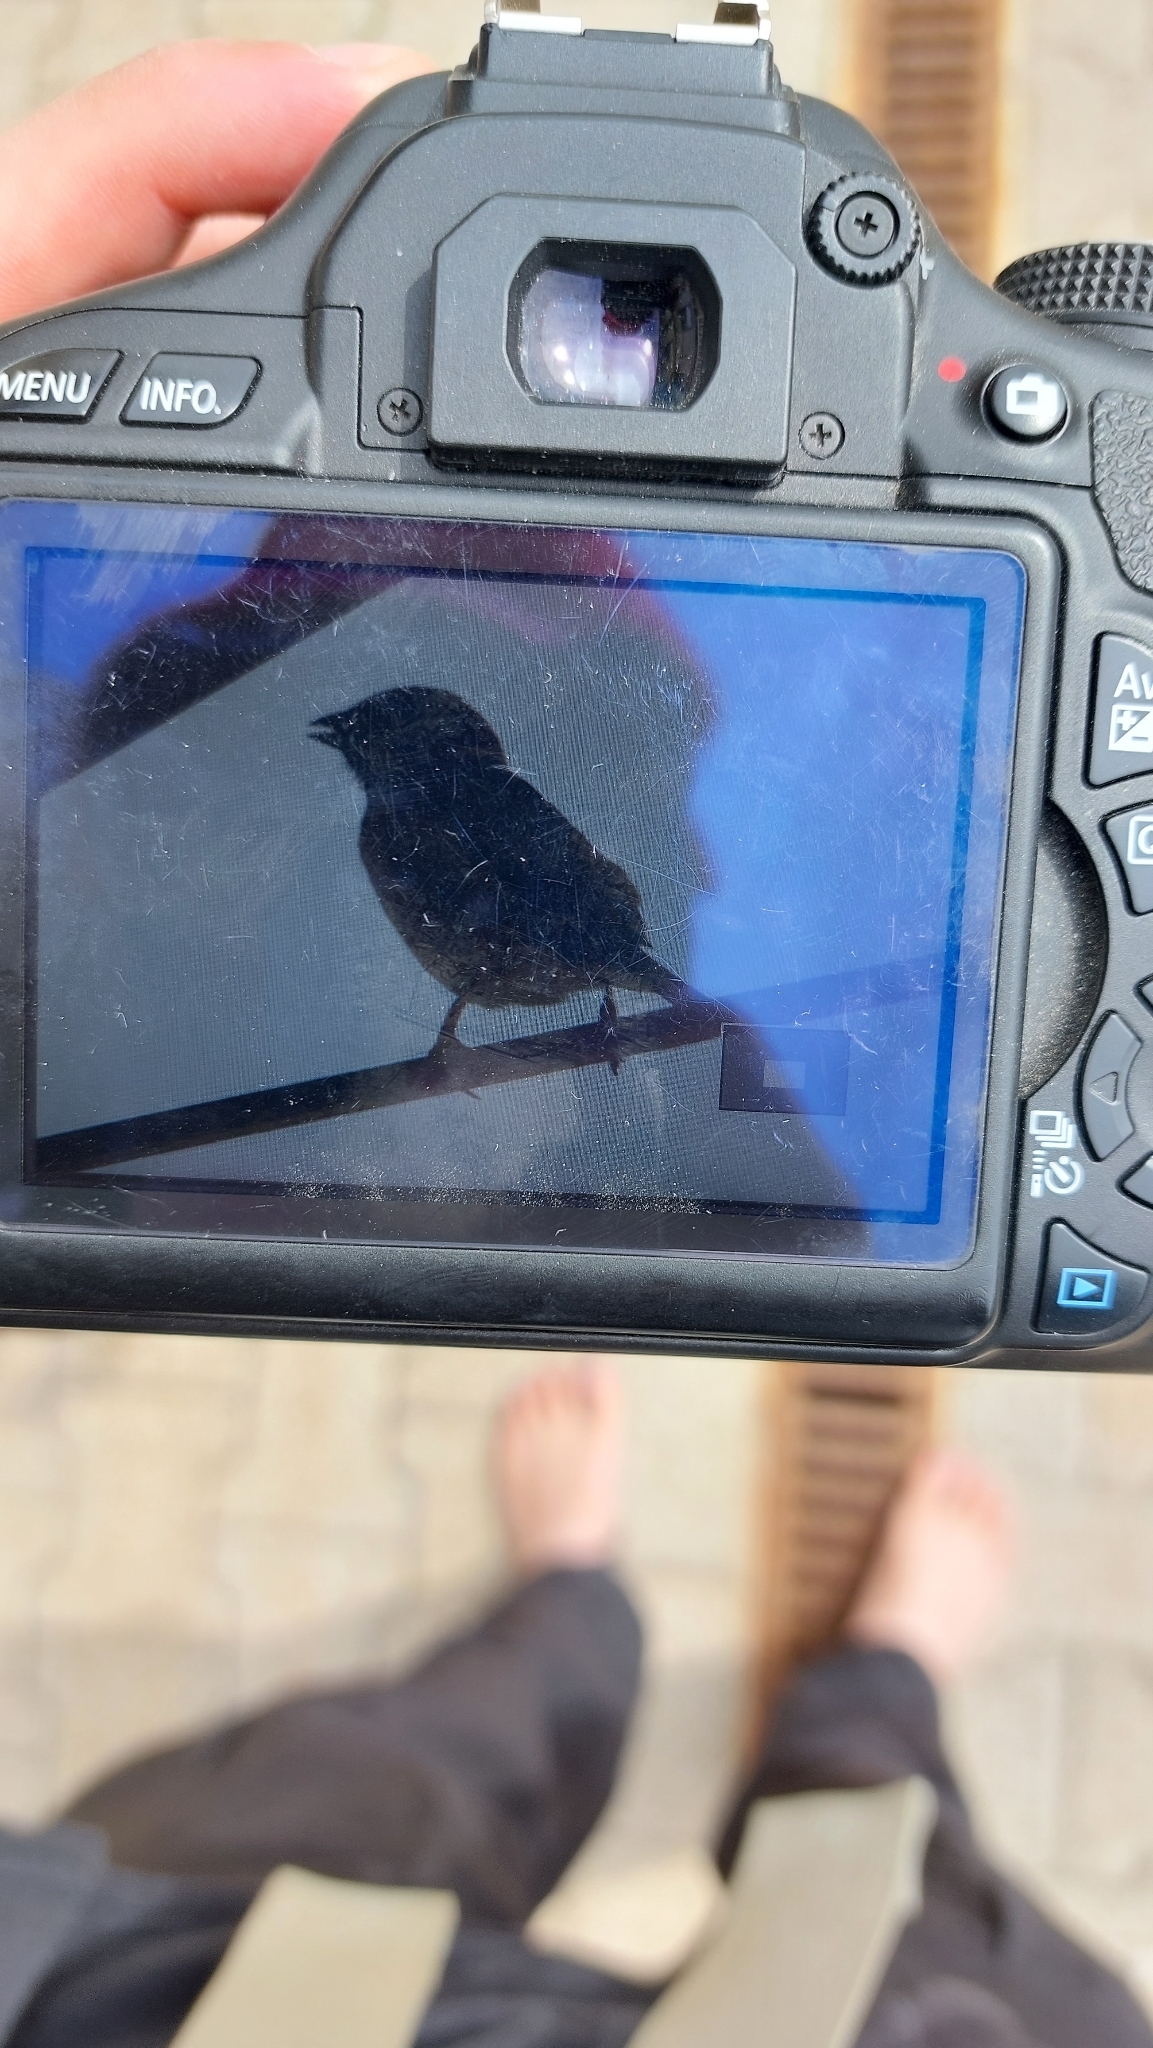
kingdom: Animalia
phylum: Chordata
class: Aves
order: Passeriformes
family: Passeridae
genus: Passer
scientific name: Passer domesticus
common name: House sparrow
